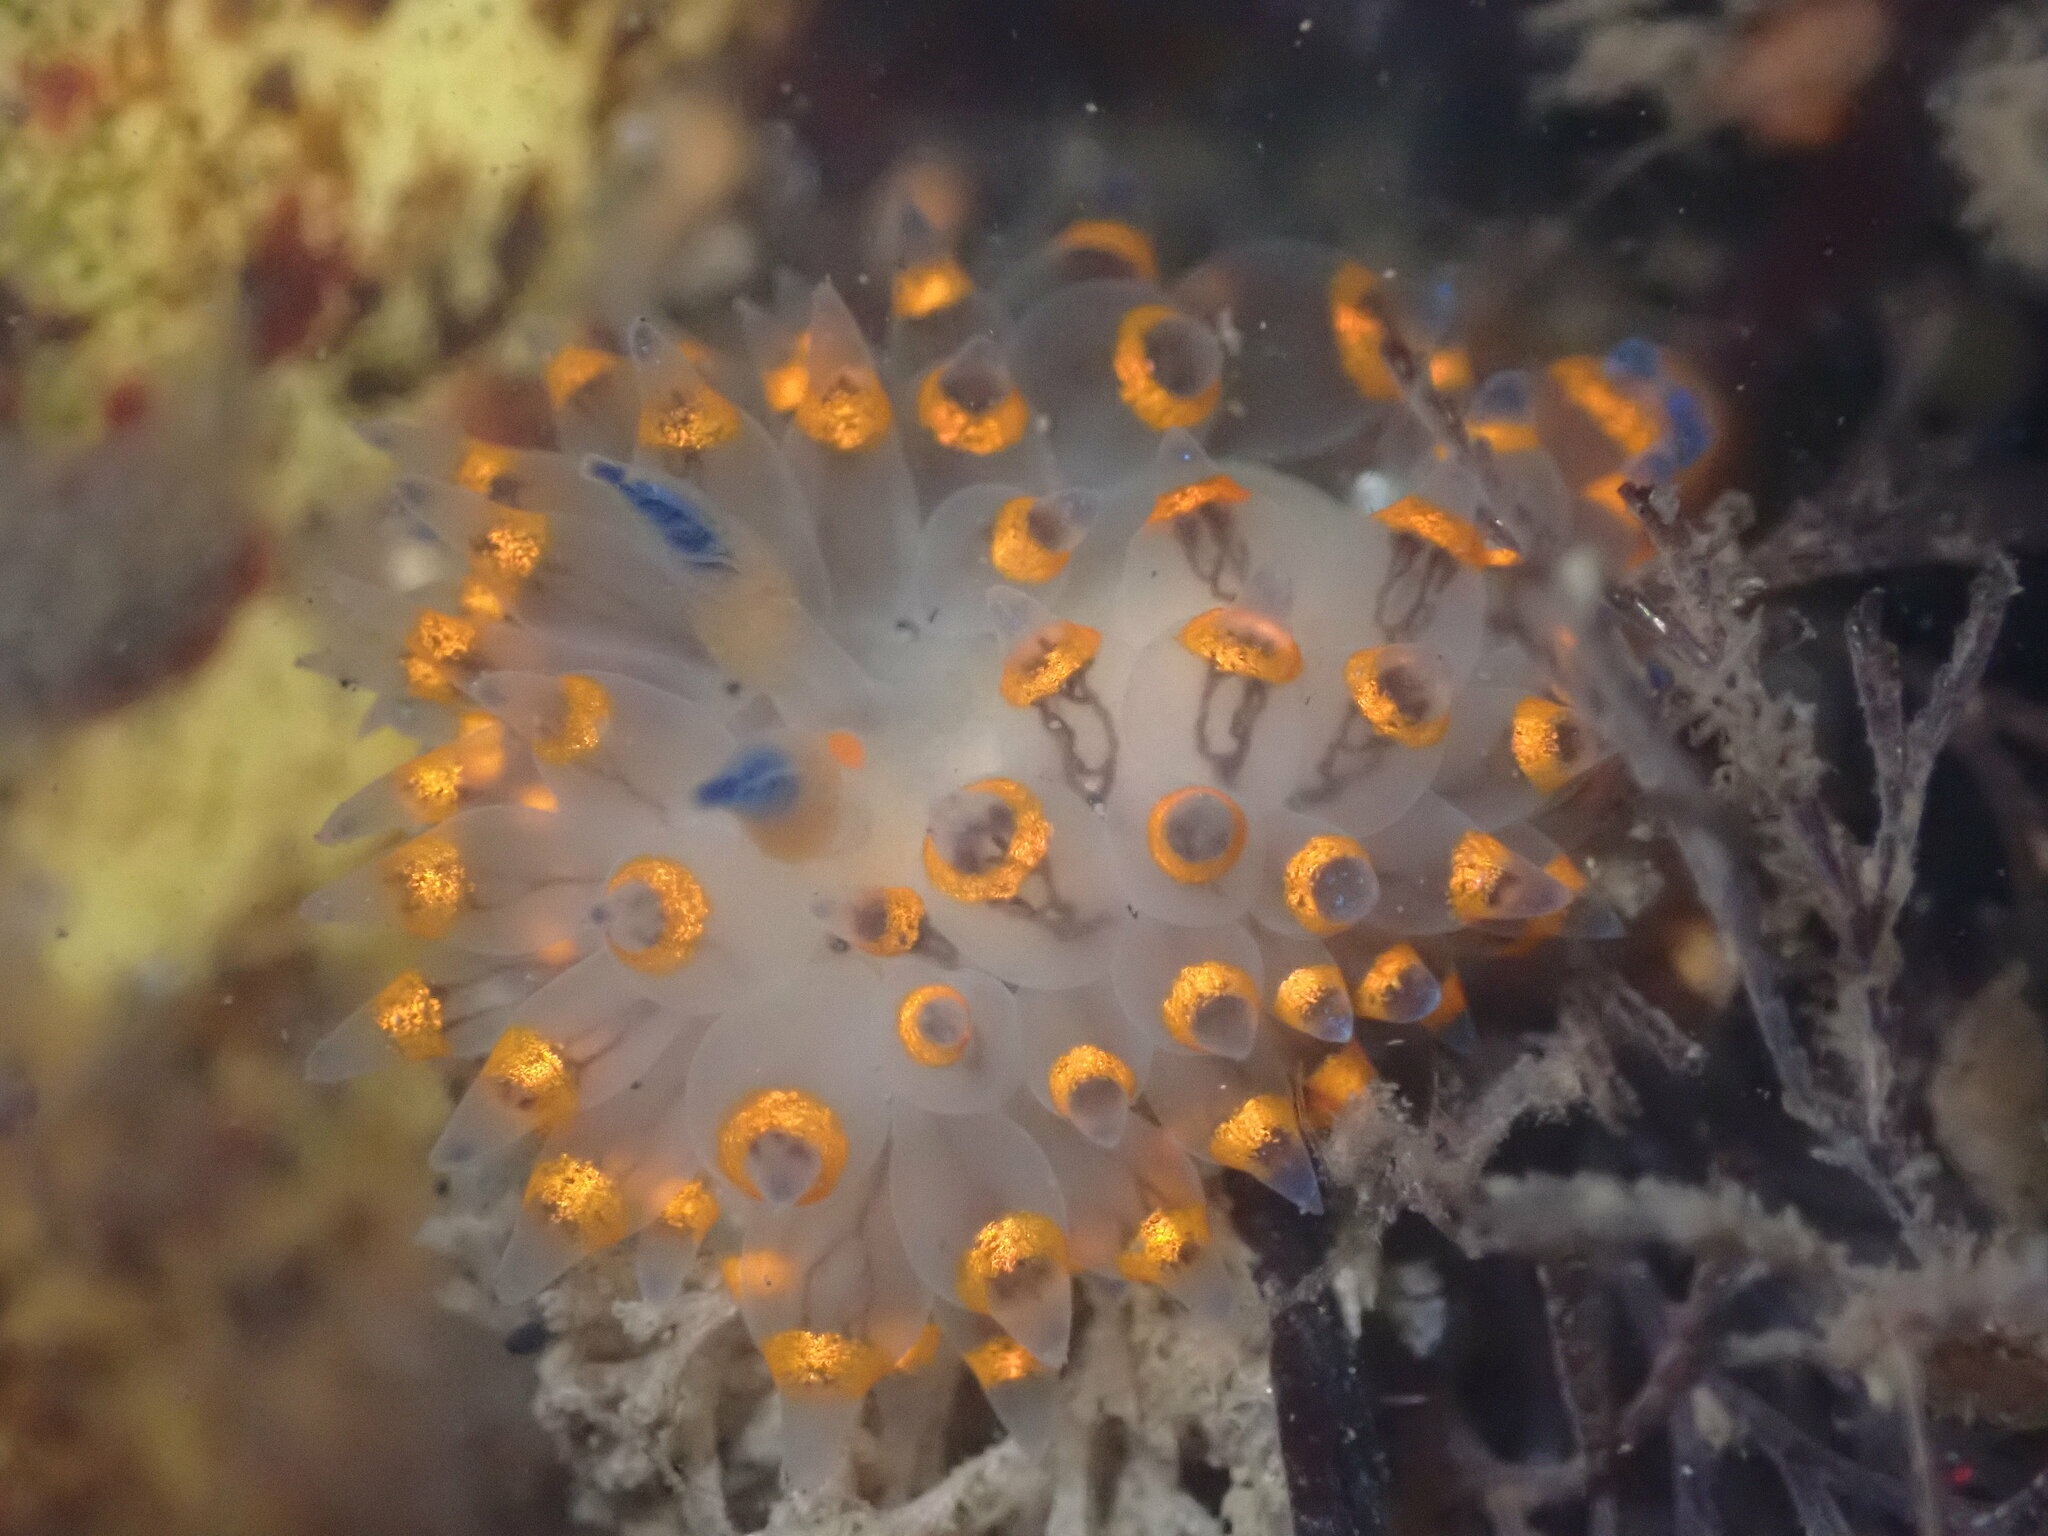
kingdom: Animalia
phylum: Mollusca
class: Gastropoda
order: Nudibranchia
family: Janolidae
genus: Antiopella
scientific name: Antiopella barbarensis
